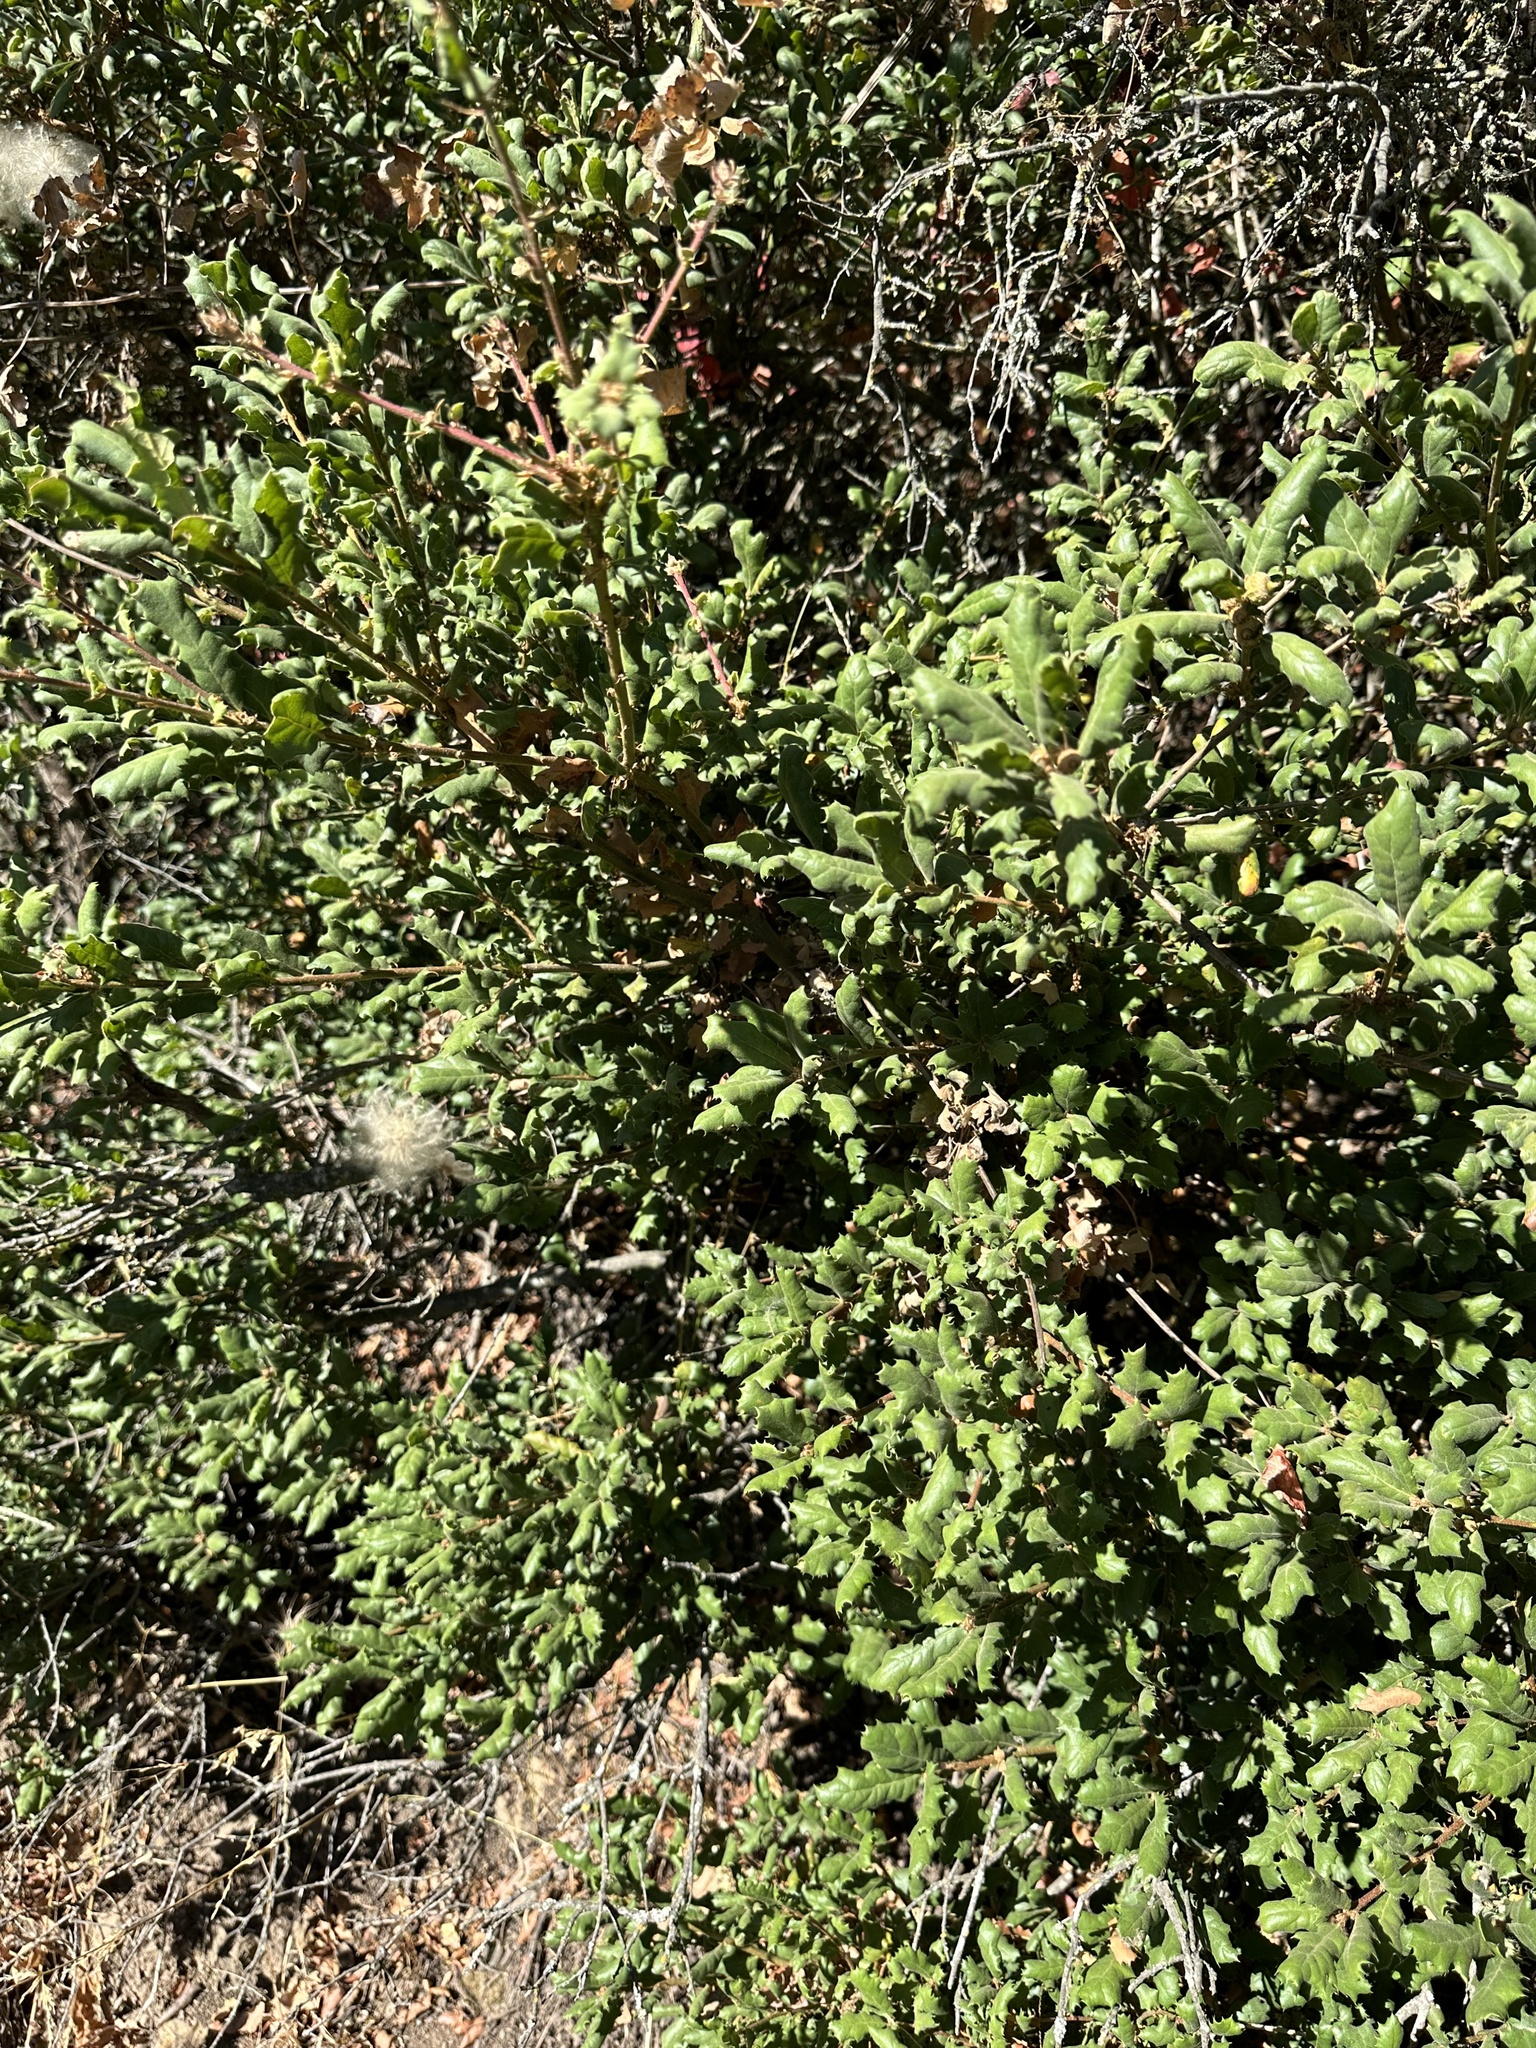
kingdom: Plantae
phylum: Tracheophyta
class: Magnoliopsida
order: Fagales
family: Fagaceae
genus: Quercus
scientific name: Quercus durata
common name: Leather oak
